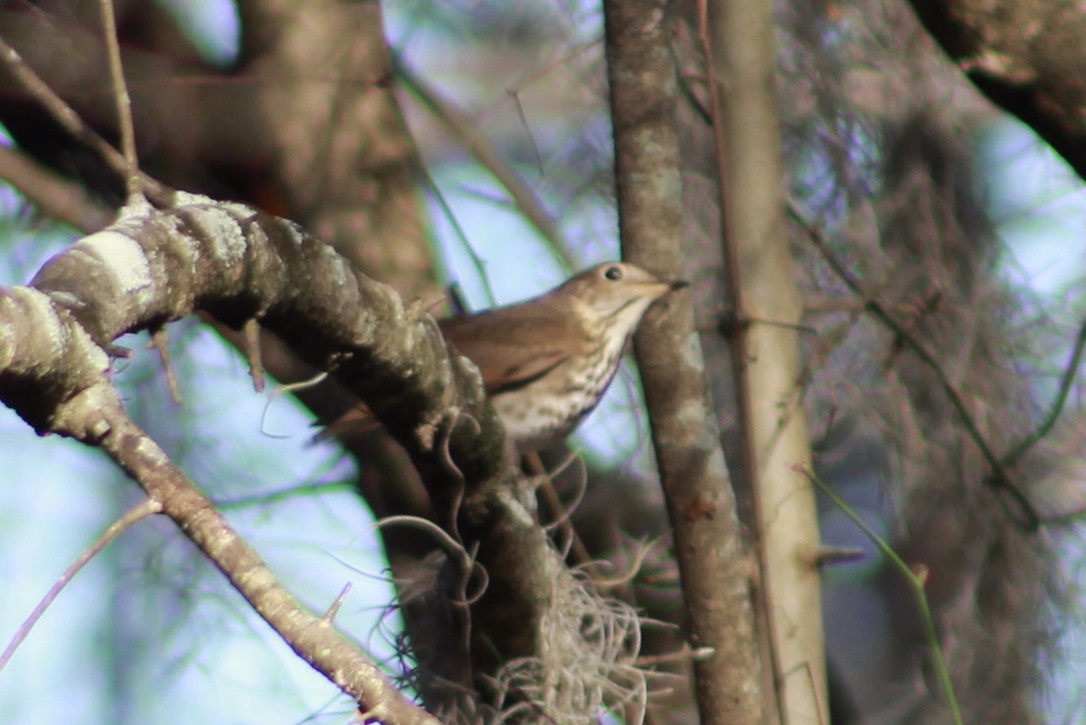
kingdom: Animalia
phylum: Chordata
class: Aves
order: Passeriformes
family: Turdidae
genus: Catharus
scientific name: Catharus guttatus
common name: Hermit thrush
